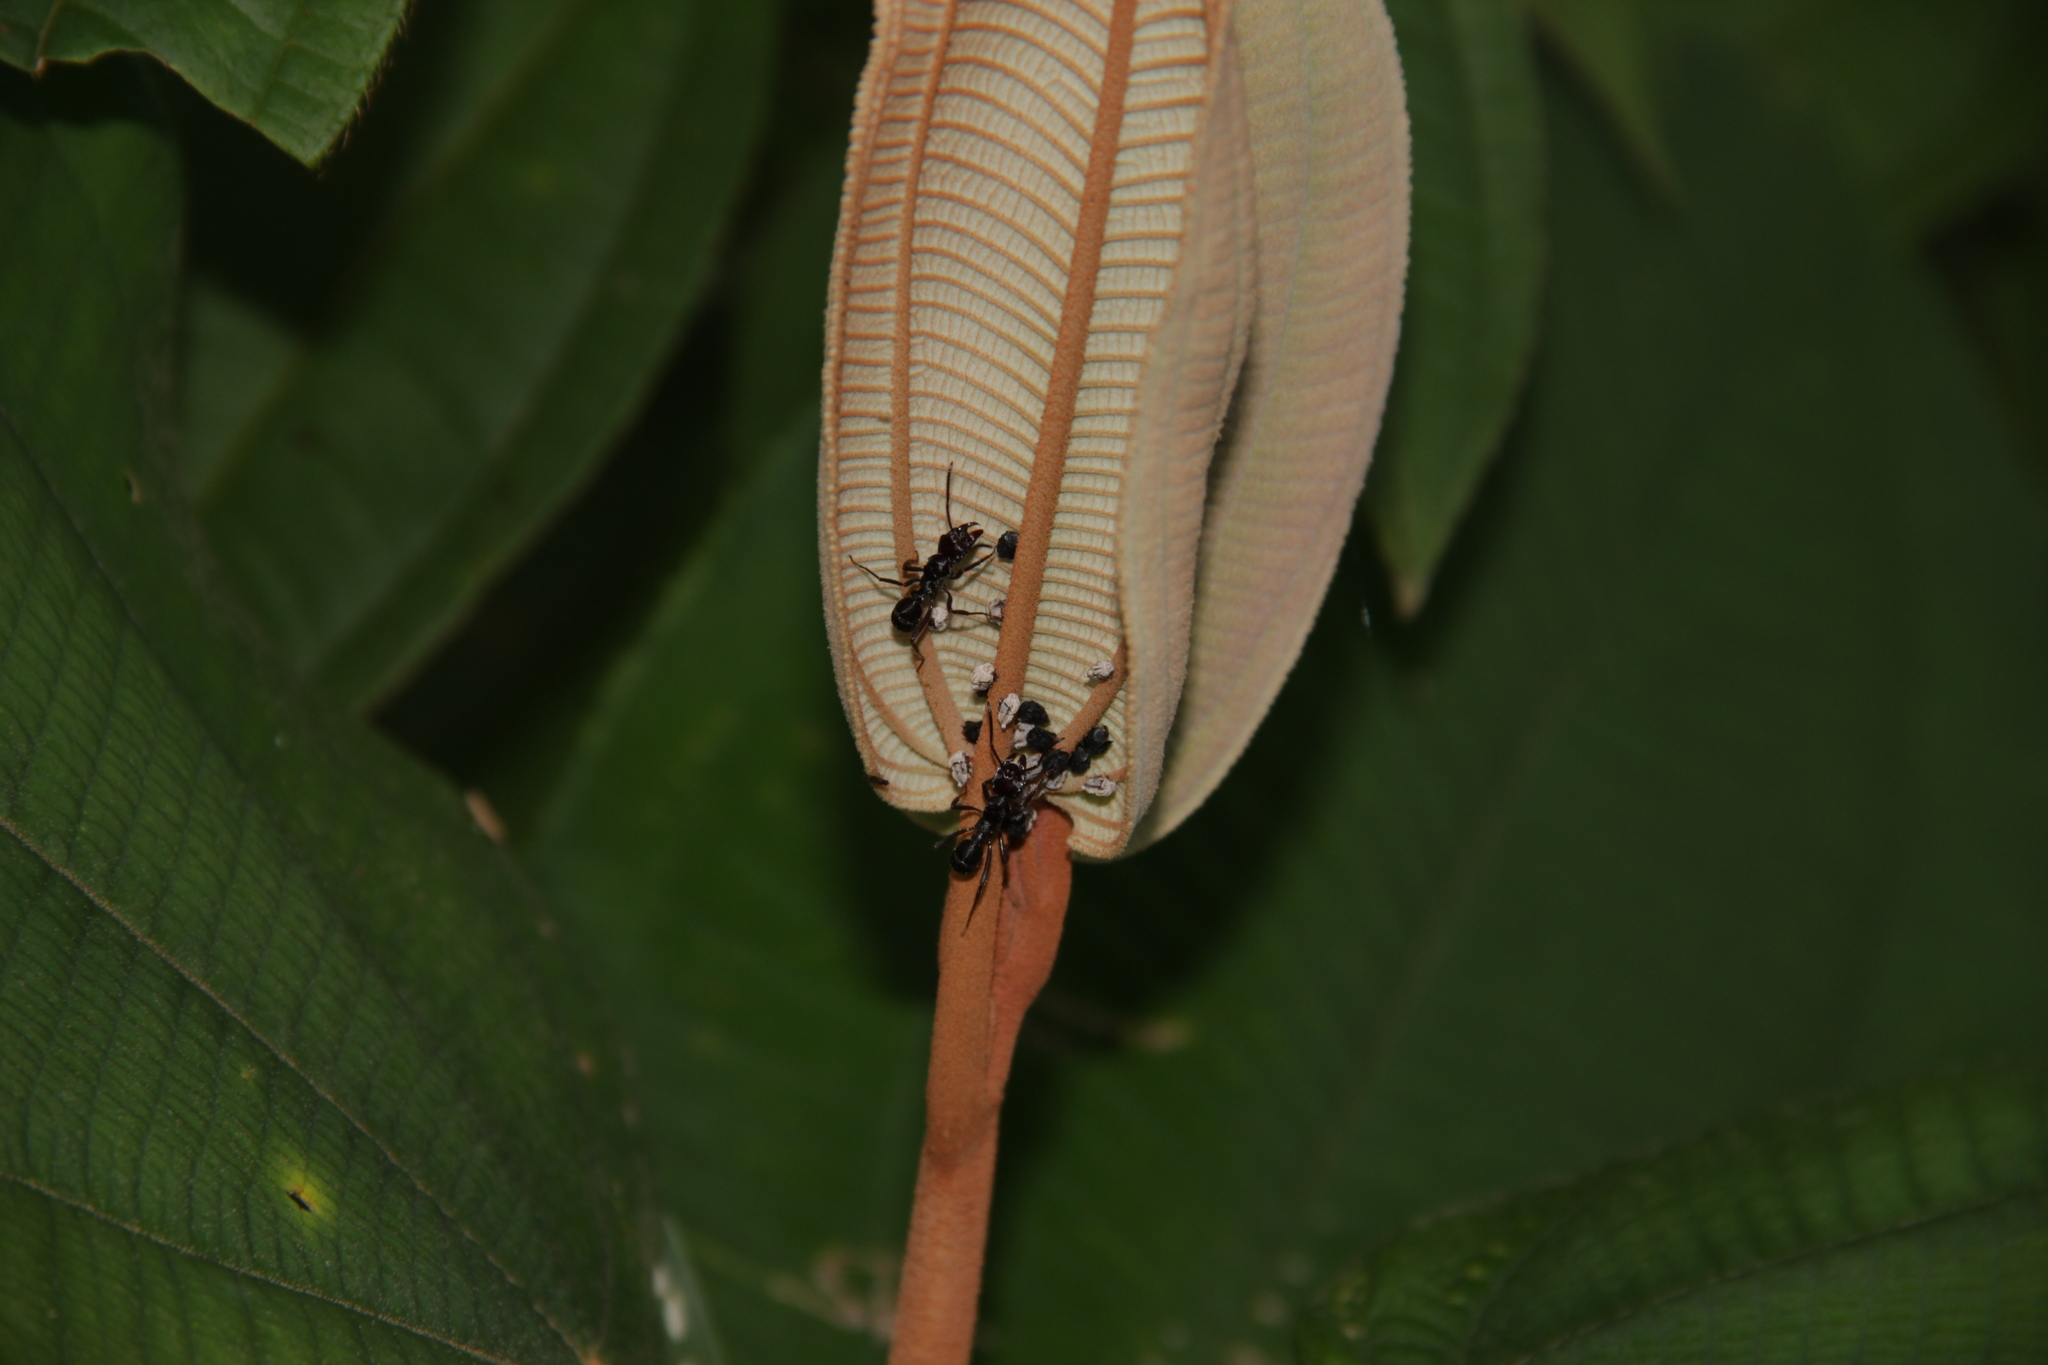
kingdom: Animalia
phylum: Arthropoda
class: Insecta
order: Hymenoptera
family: Formicidae
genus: Ectatomma
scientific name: Ectatomma brunneum
